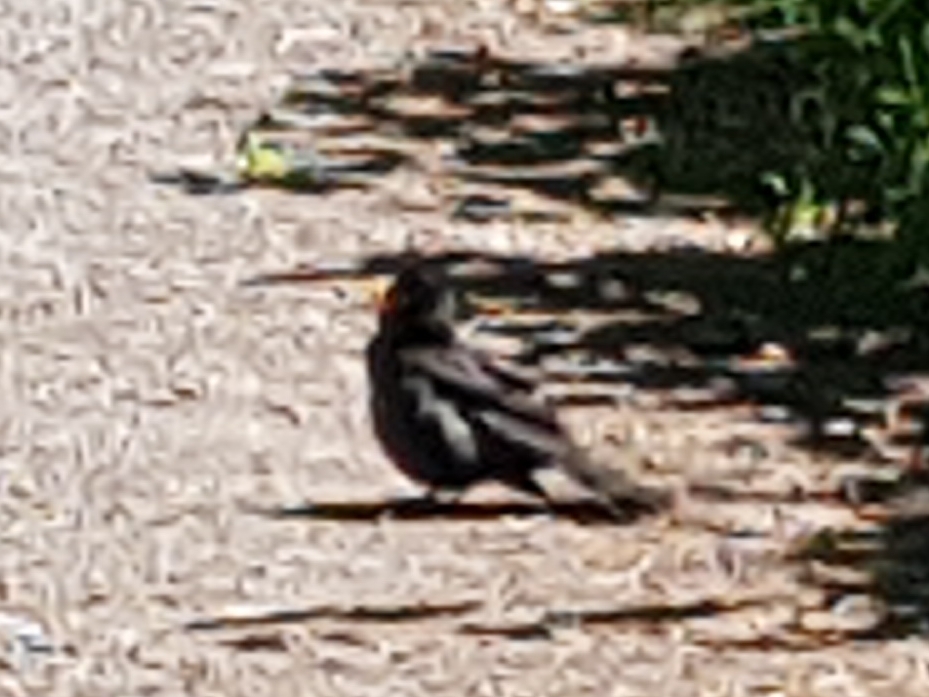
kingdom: Animalia
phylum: Chordata
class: Aves
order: Passeriformes
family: Turdidae
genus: Turdus
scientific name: Turdus merula
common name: Common blackbird
